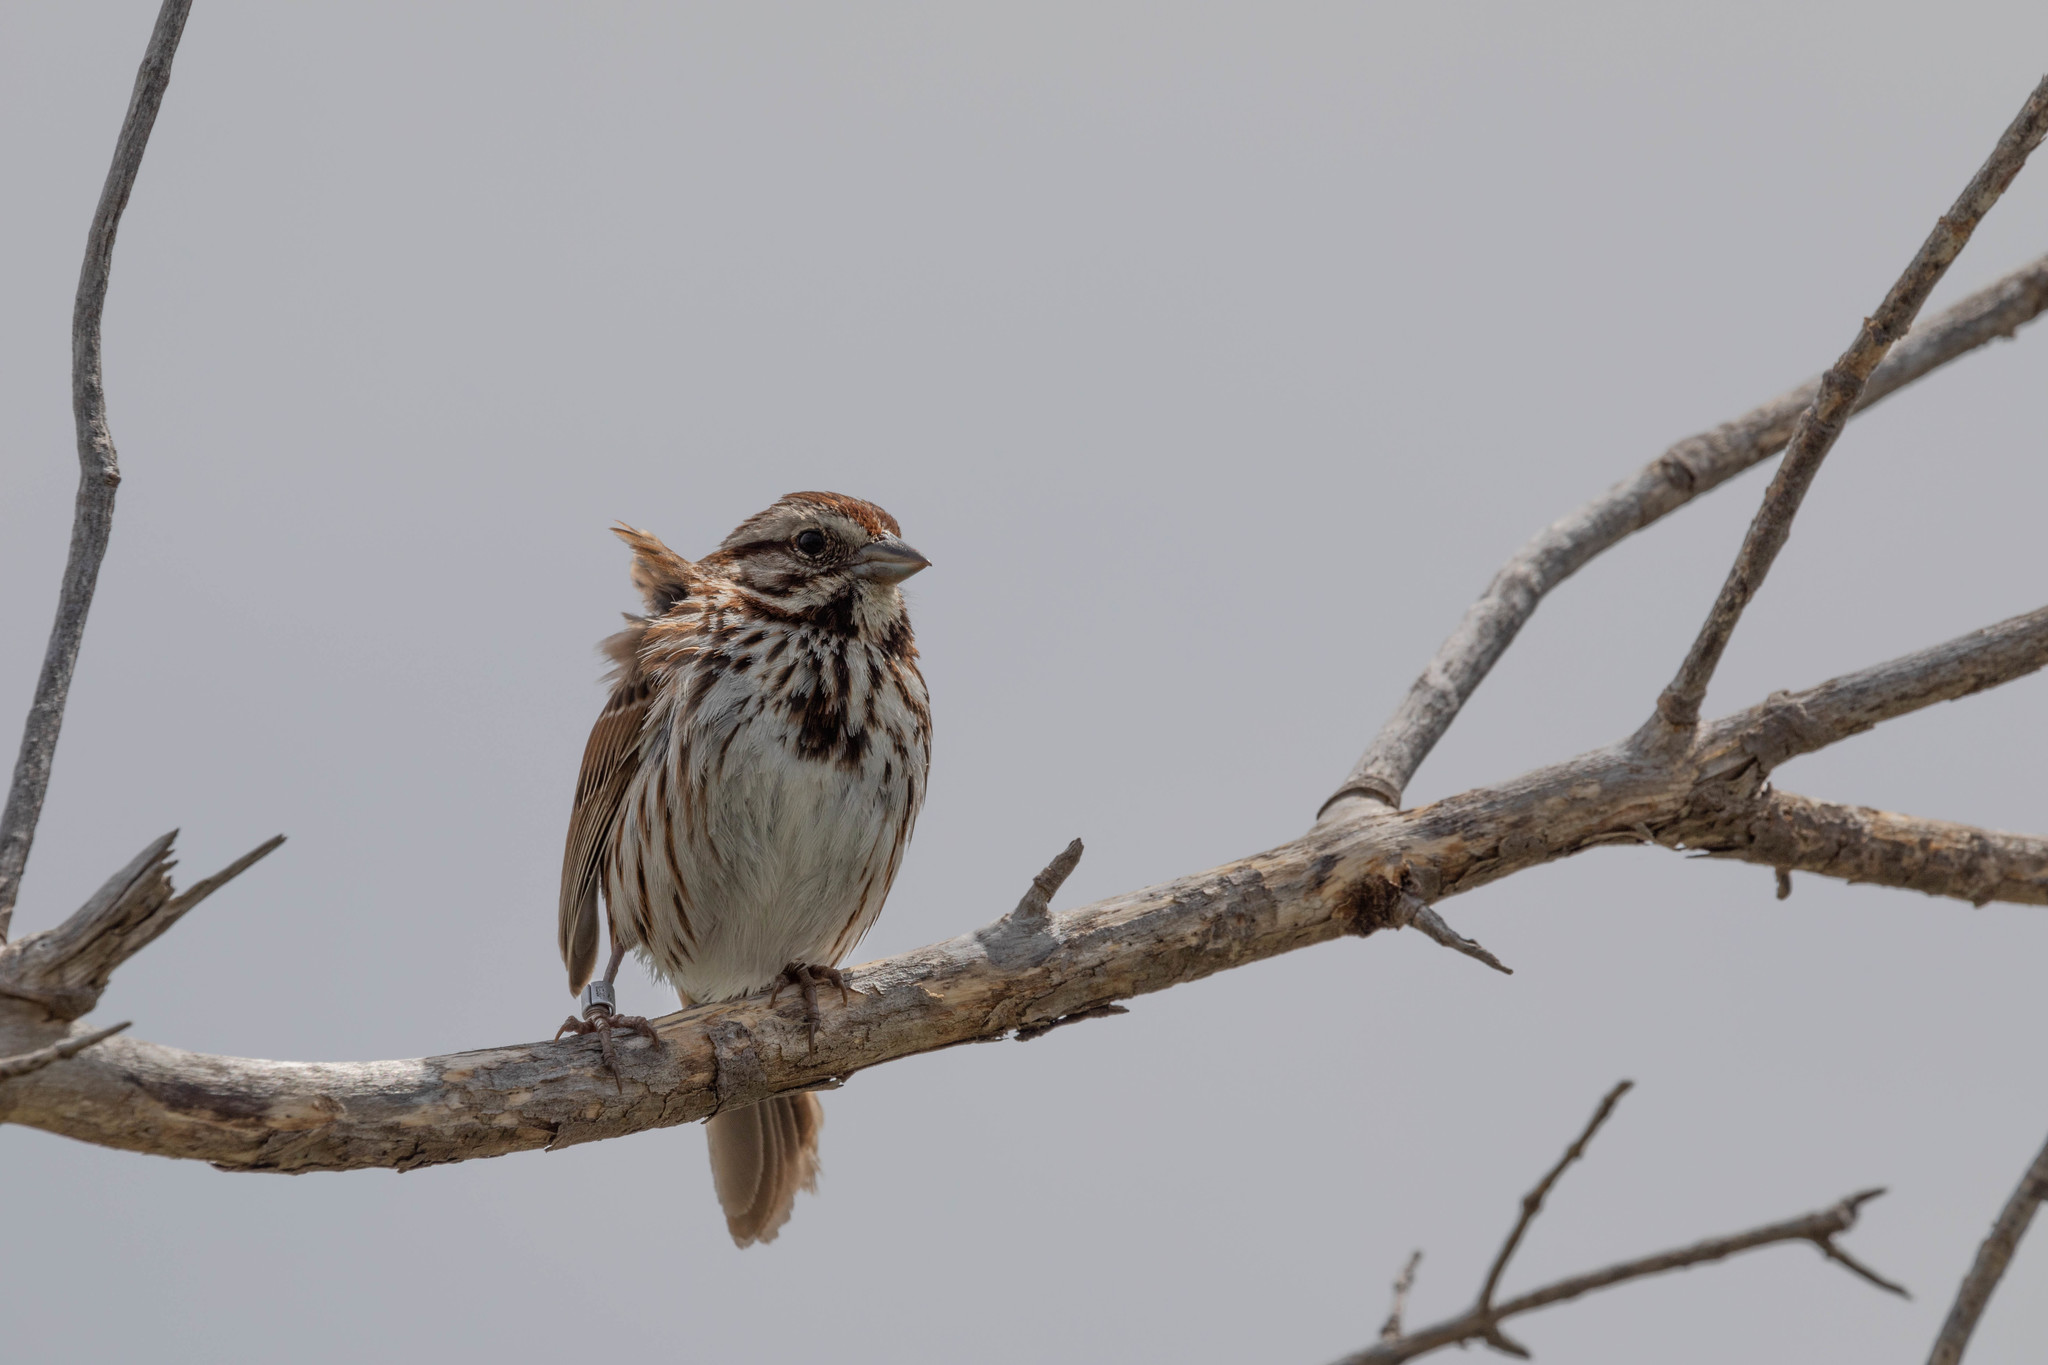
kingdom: Animalia
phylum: Chordata
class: Aves
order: Passeriformes
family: Passerellidae
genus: Melospiza
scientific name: Melospiza melodia
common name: Song sparrow
